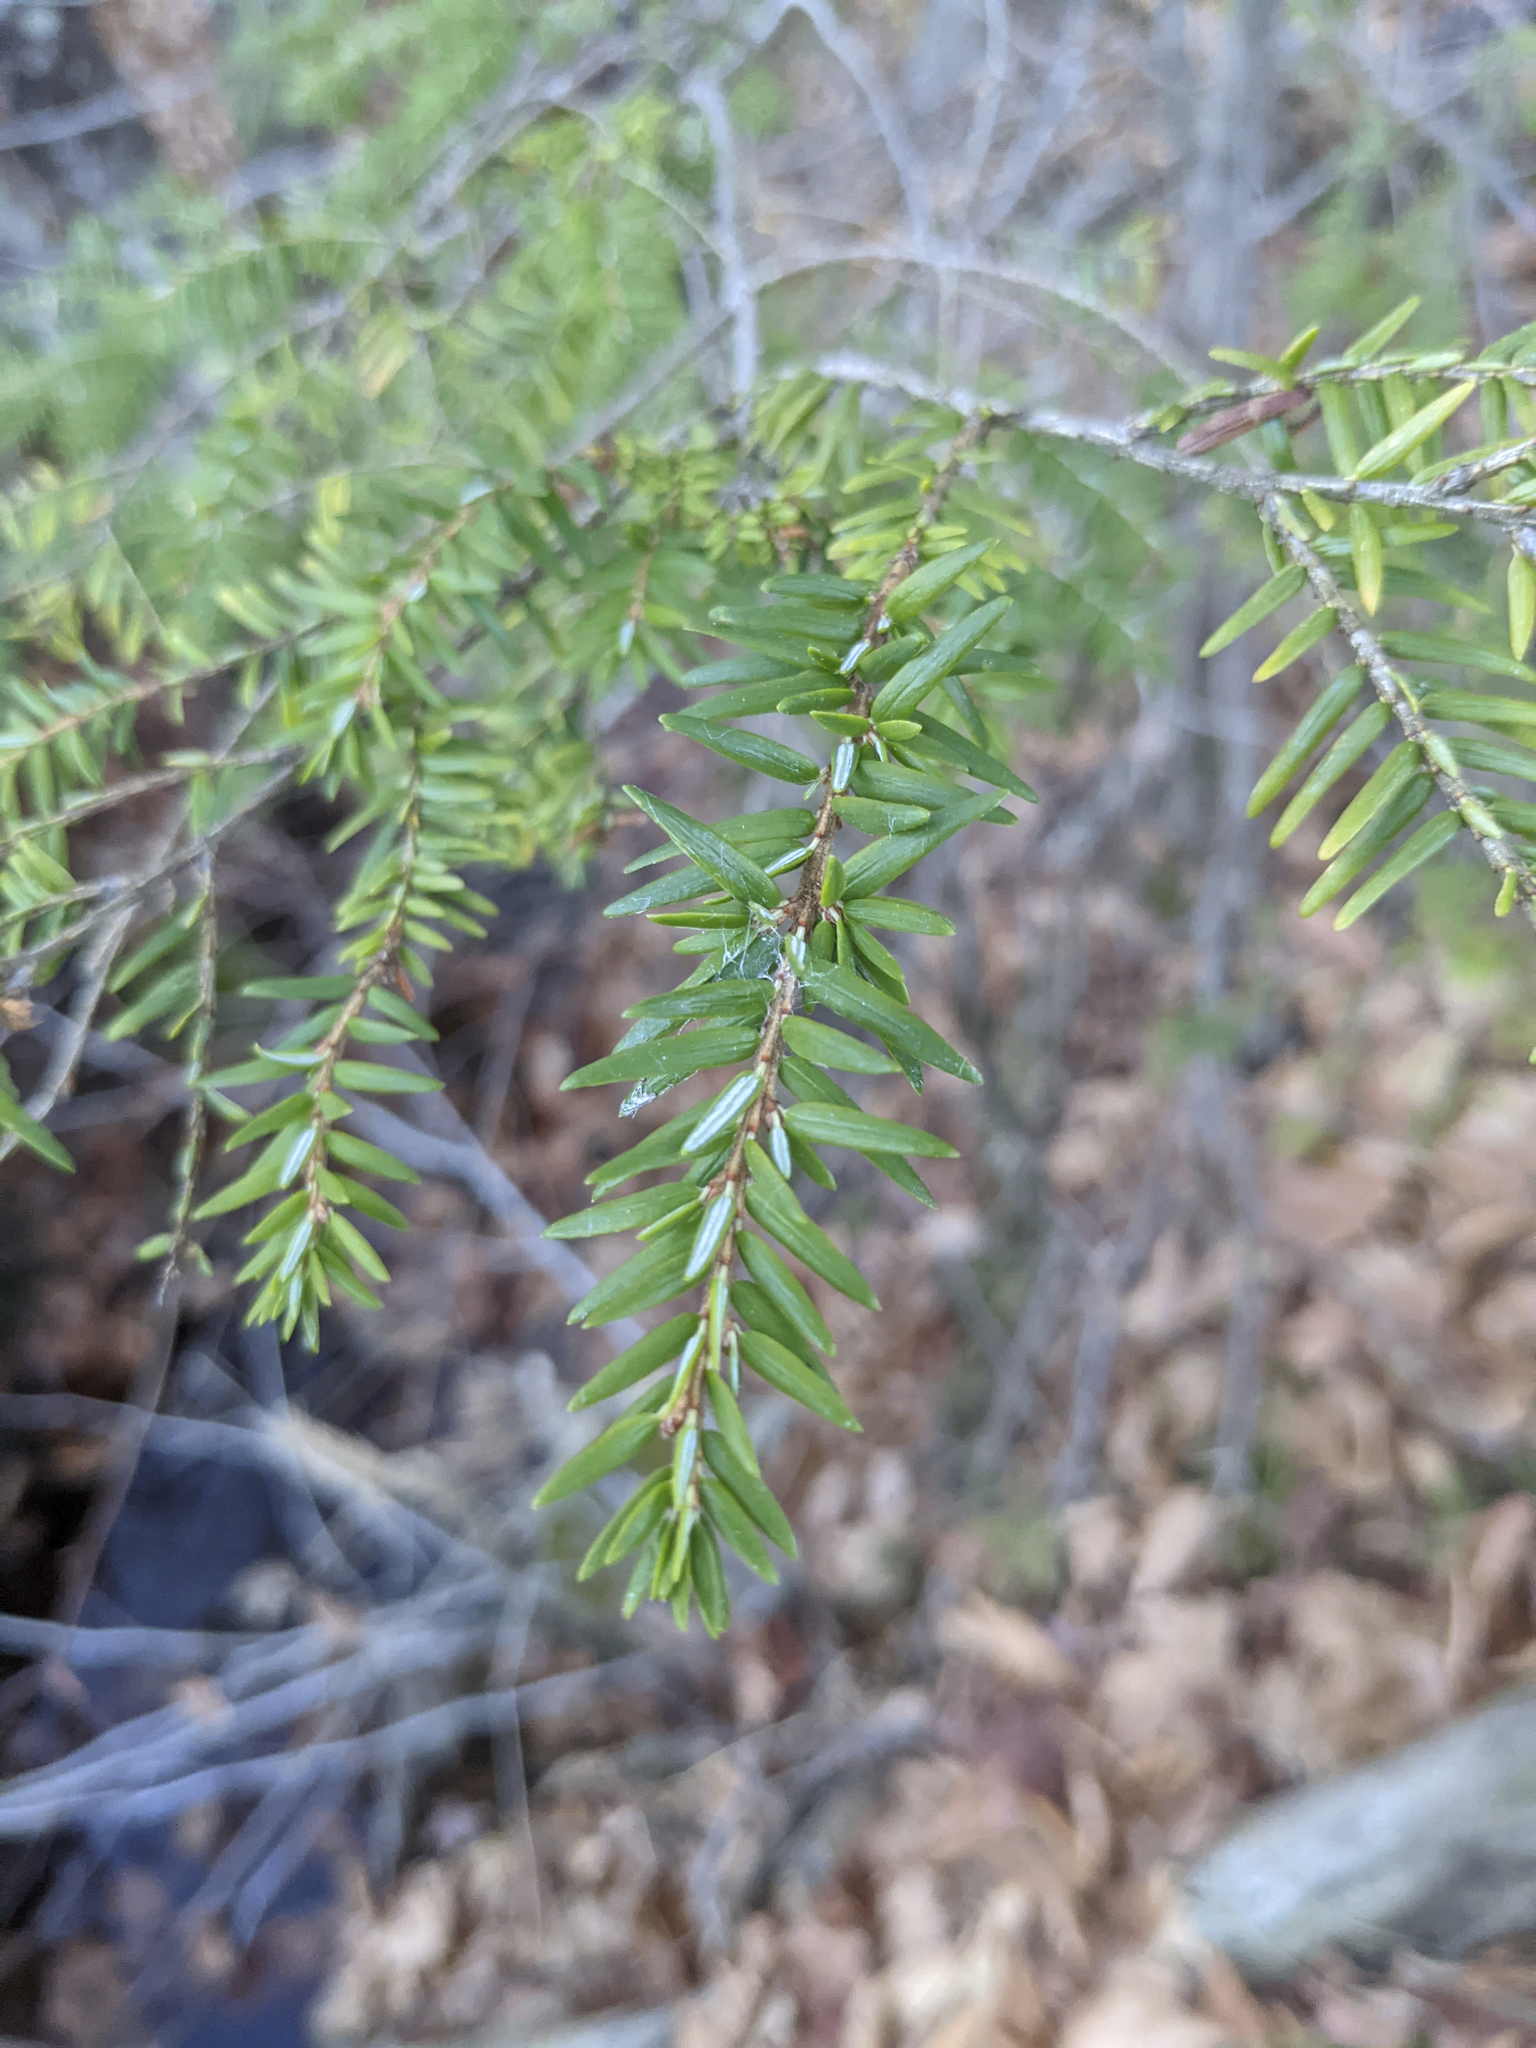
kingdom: Plantae
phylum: Tracheophyta
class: Pinopsida
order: Pinales
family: Pinaceae
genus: Tsuga
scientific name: Tsuga canadensis
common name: Eastern hemlock
